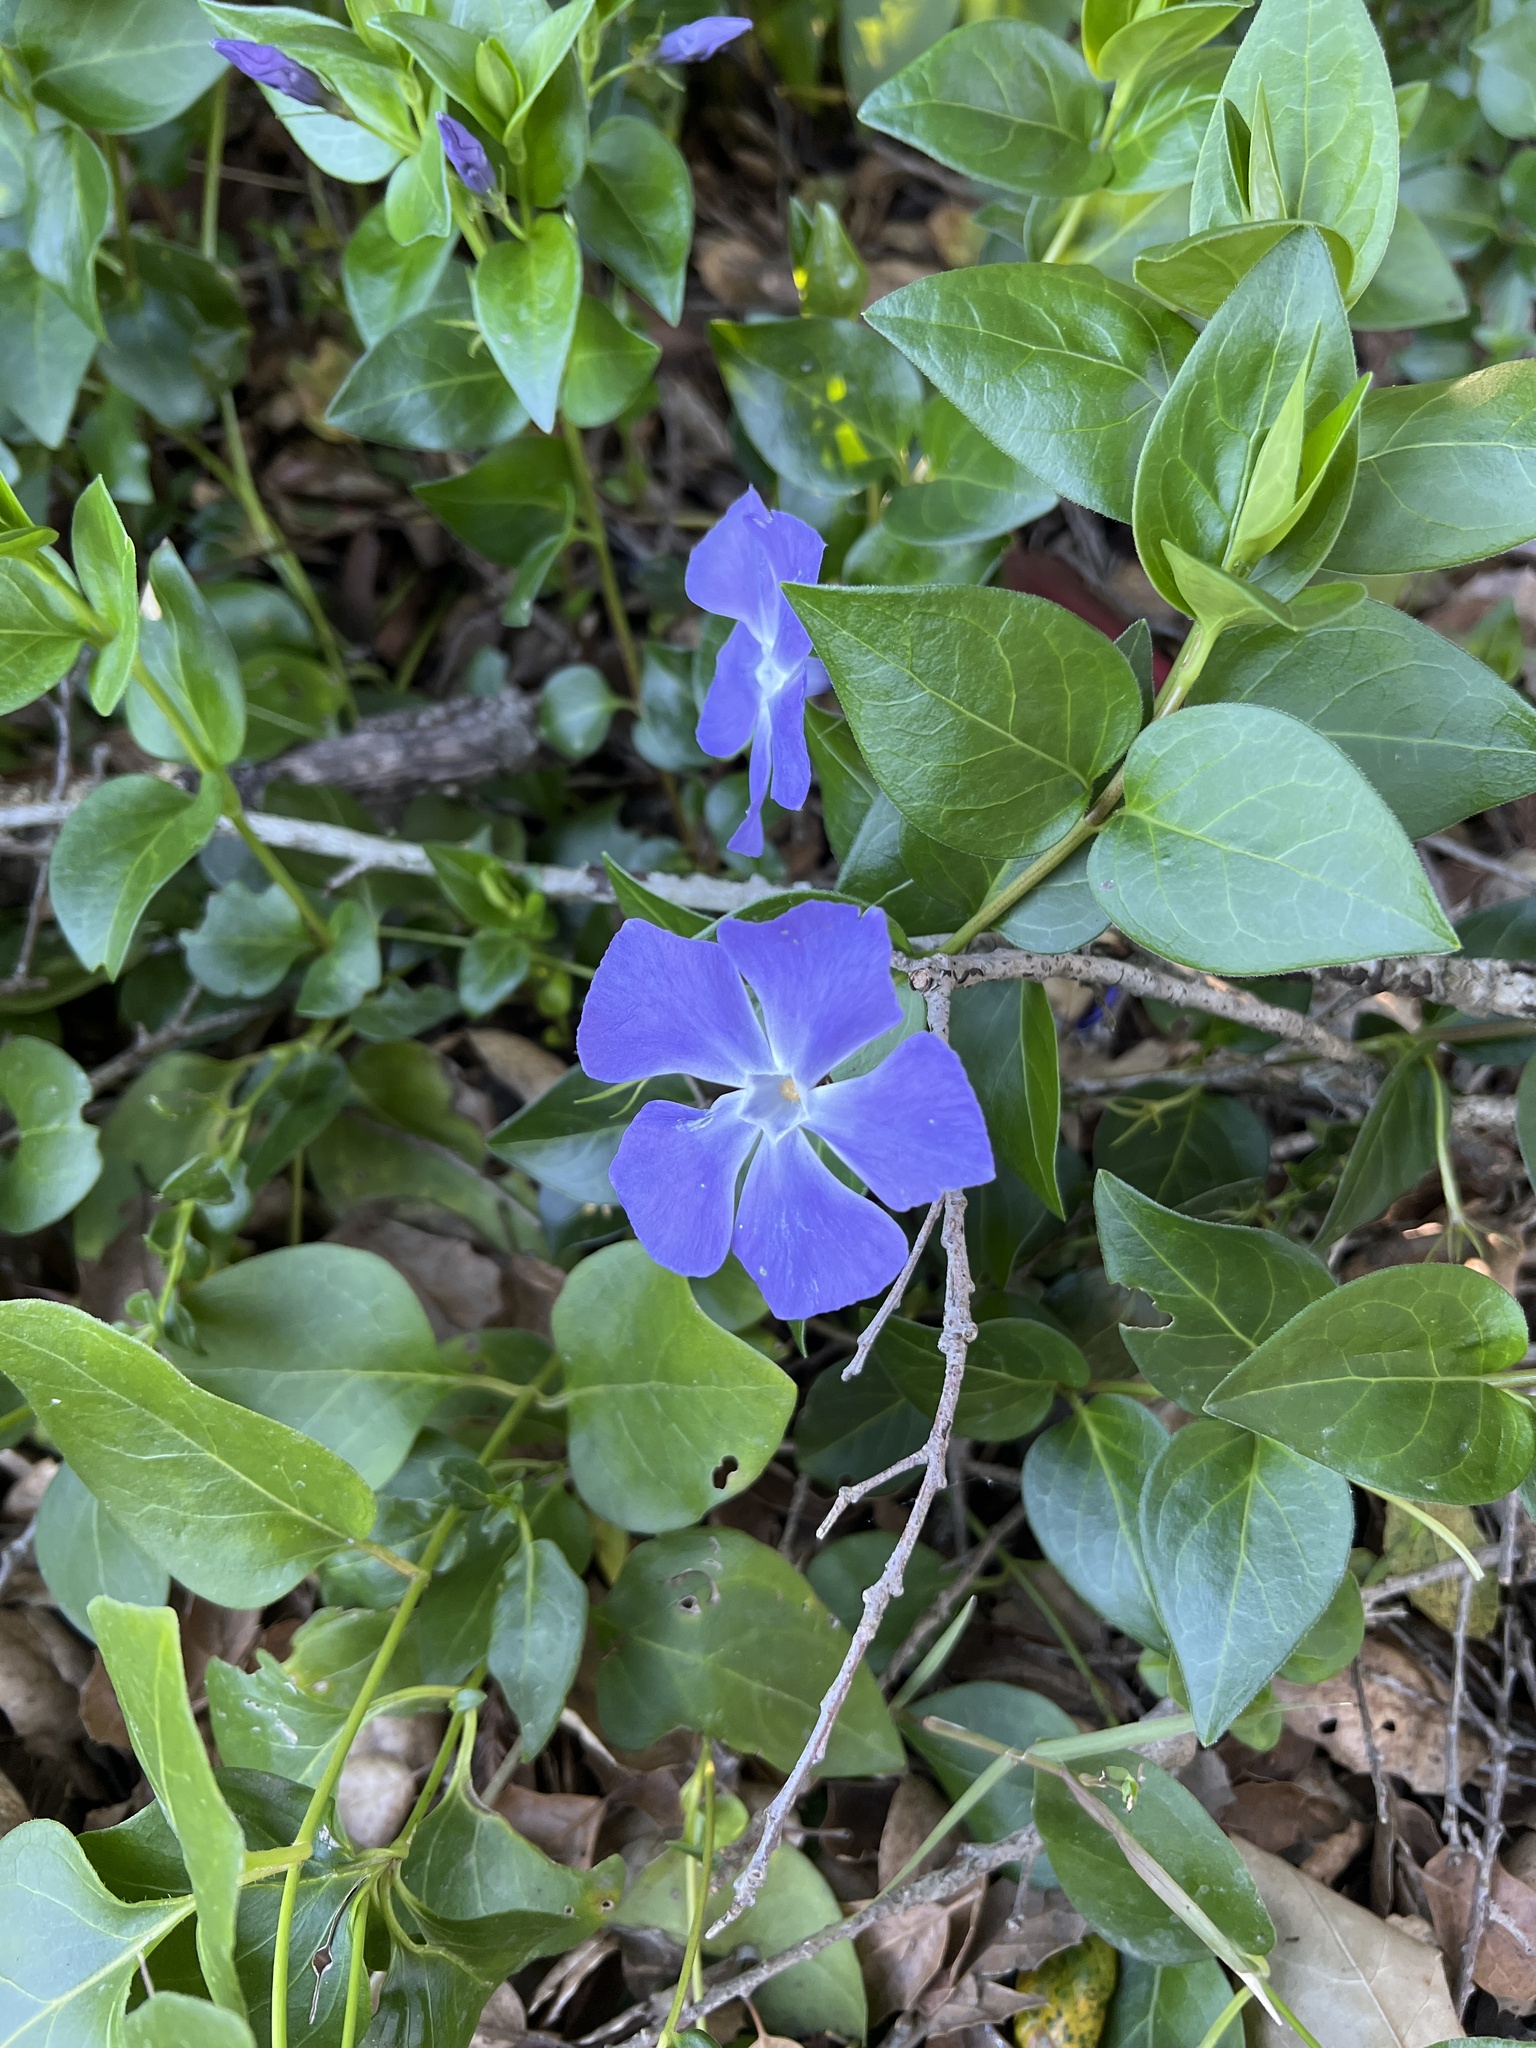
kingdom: Plantae
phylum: Tracheophyta
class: Magnoliopsida
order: Gentianales
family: Apocynaceae
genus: Vinca
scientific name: Vinca major
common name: Greater periwinkle
